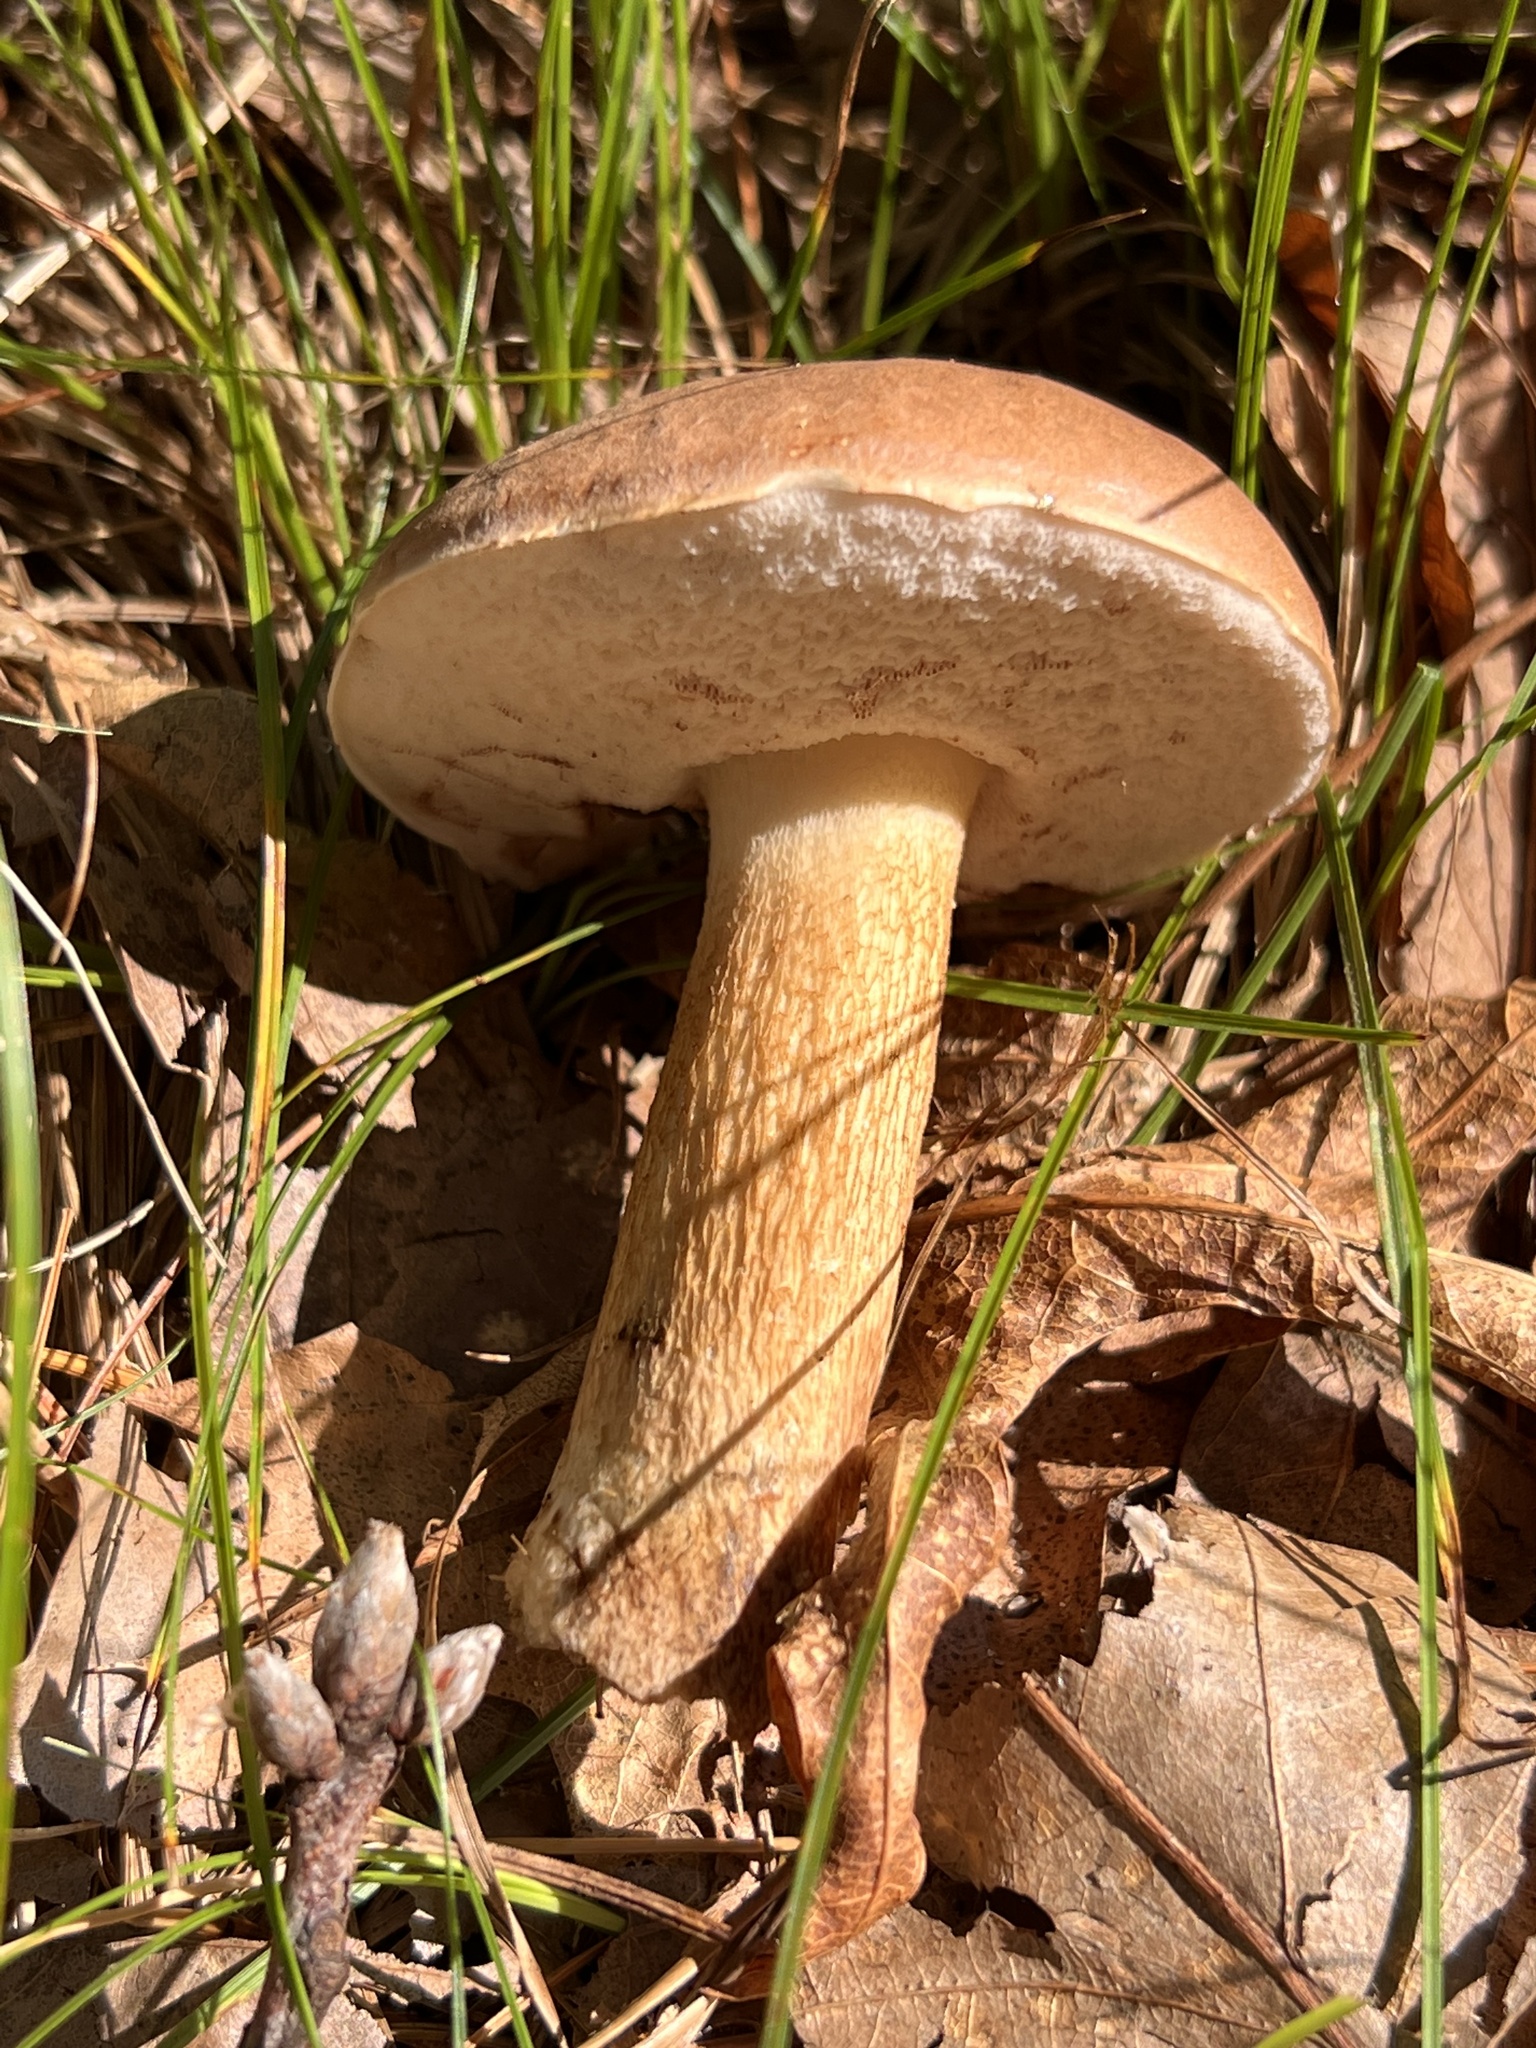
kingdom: Fungi
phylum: Basidiomycota
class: Agaricomycetes
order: Boletales
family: Boletaceae
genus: Tylopilus
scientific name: Tylopilus felleus
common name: Bitter bolete
